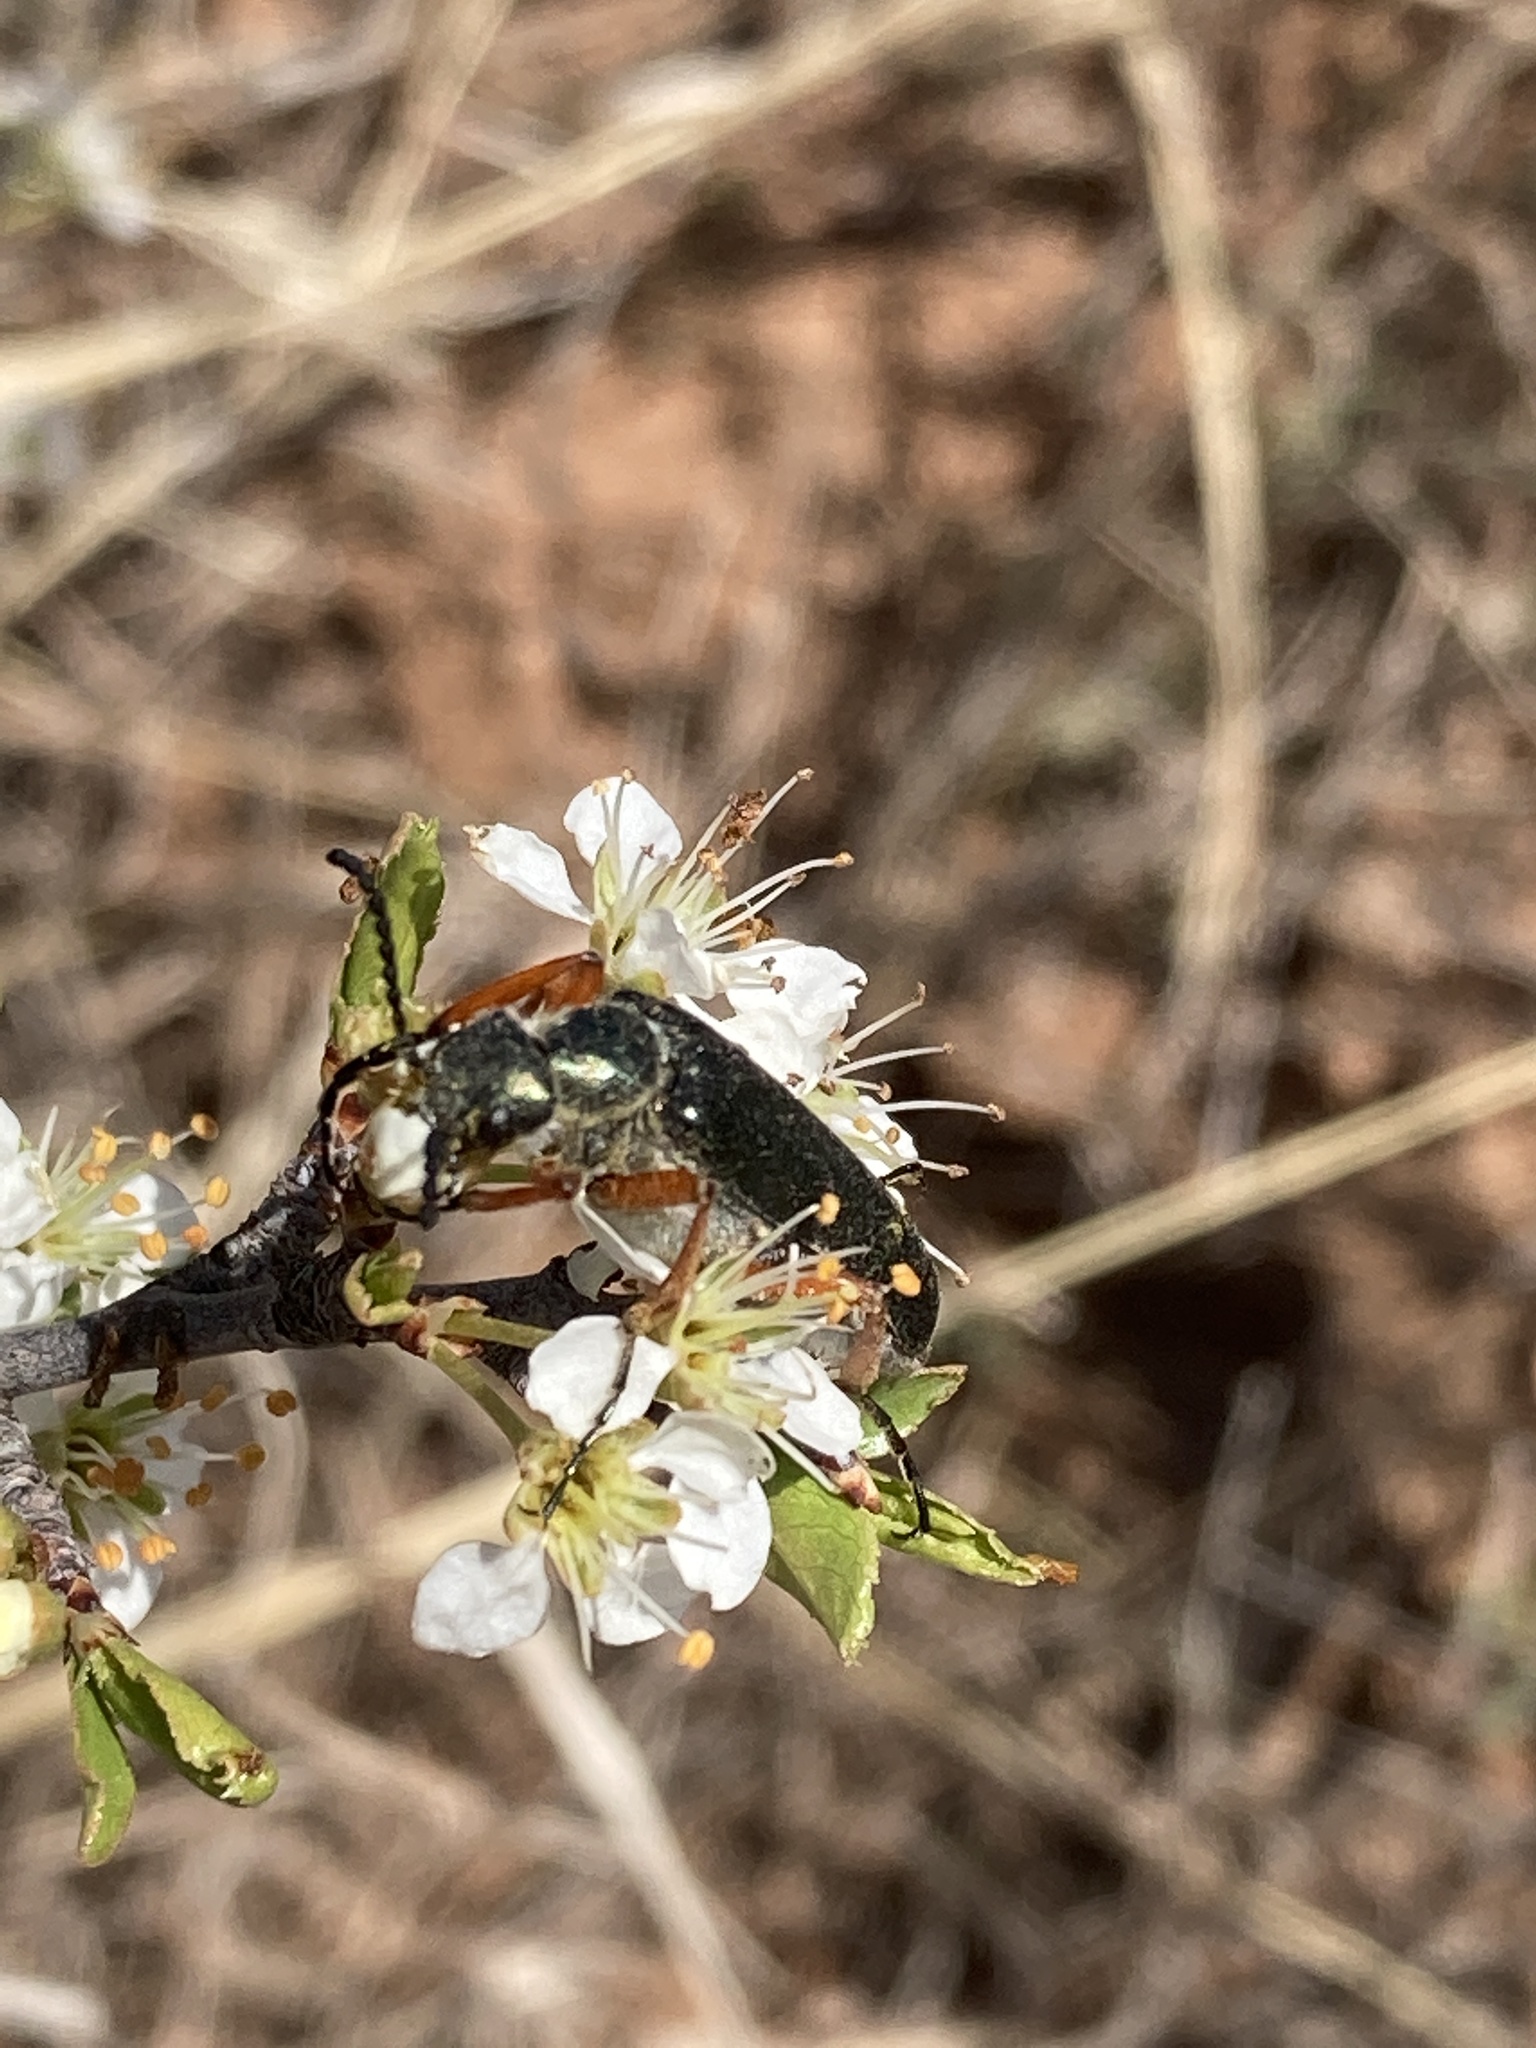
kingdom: Animalia
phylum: Arthropoda
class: Insecta
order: Coleoptera
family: Meloidae
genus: Lytta
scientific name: Lytta aenea
